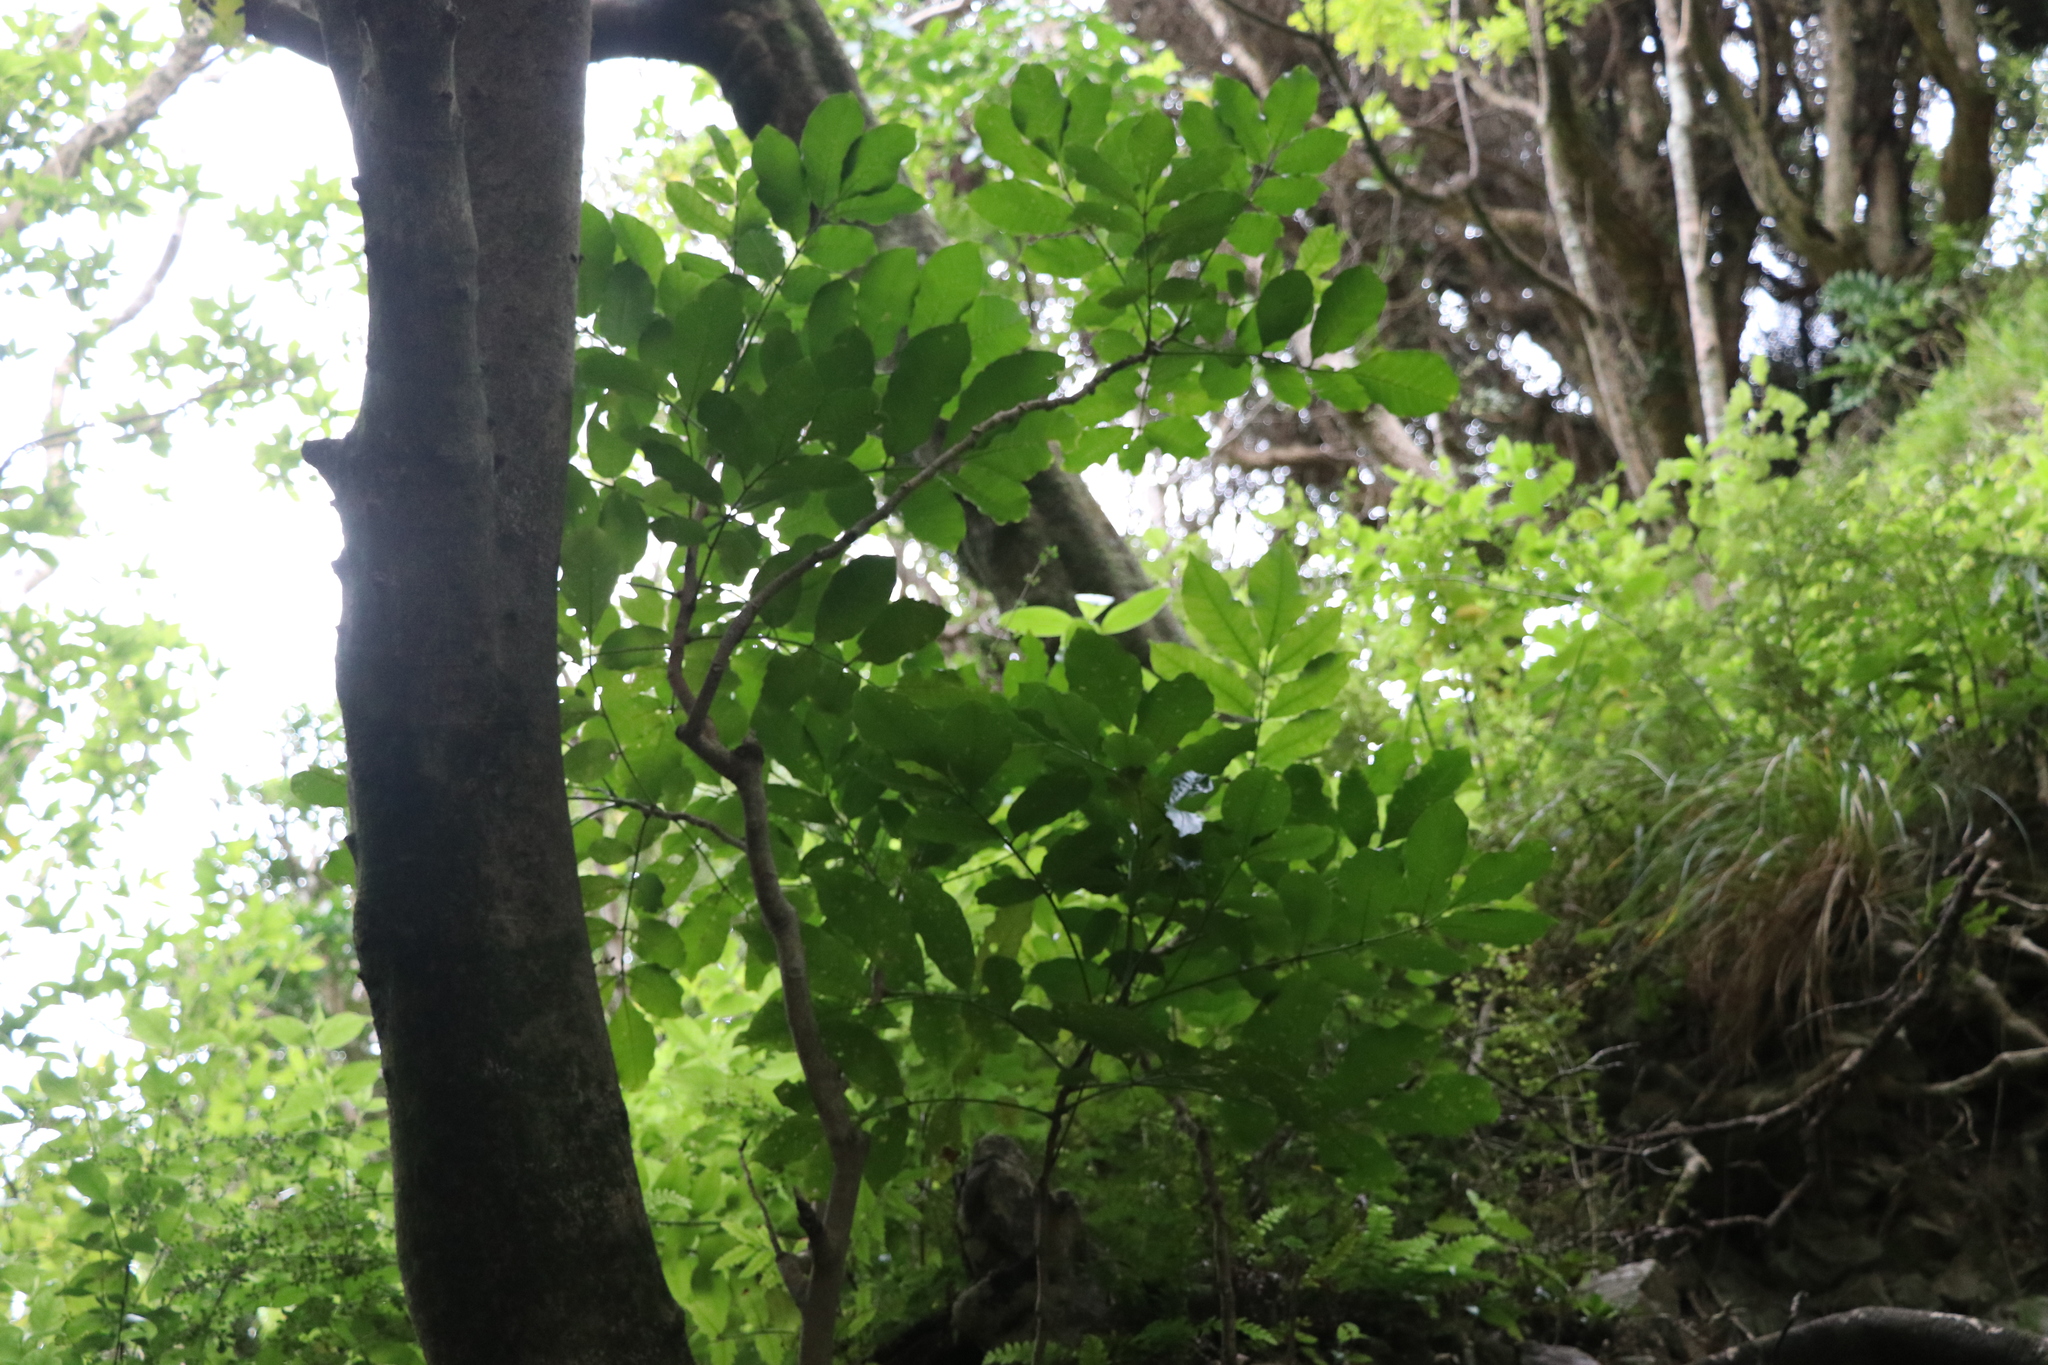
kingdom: Plantae
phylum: Tracheophyta
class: Magnoliopsida
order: Sapindales
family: Meliaceae
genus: Didymocheton
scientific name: Didymocheton spectabilis
